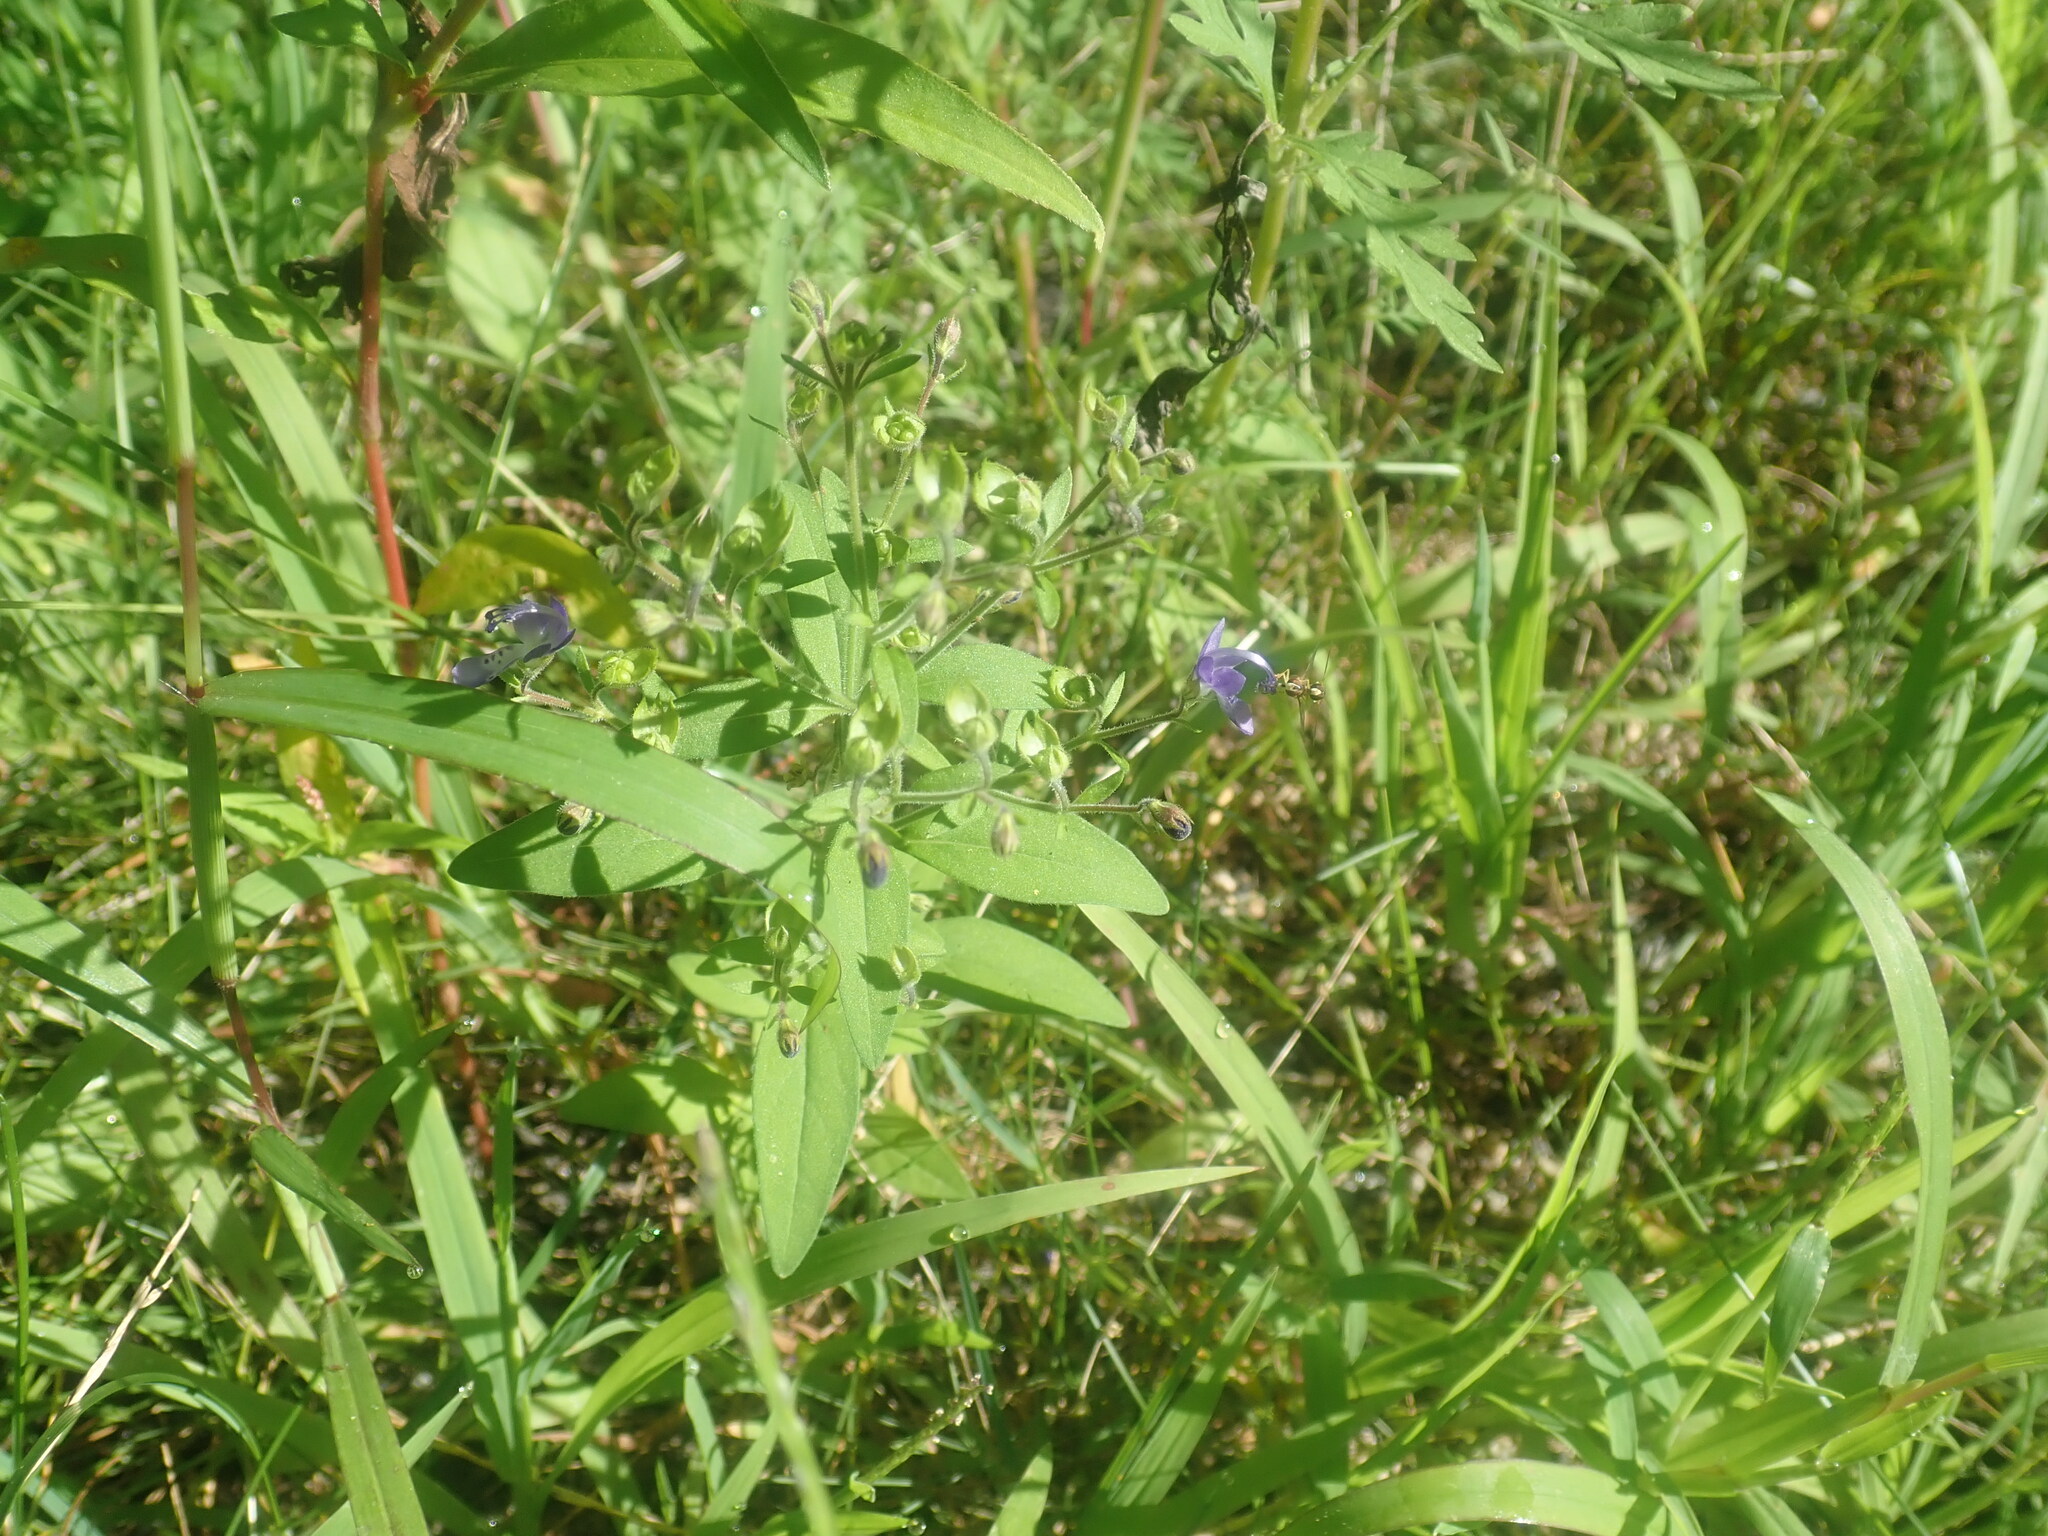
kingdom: Plantae
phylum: Tracheophyta
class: Magnoliopsida
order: Lamiales
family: Lamiaceae
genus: Trichostema
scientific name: Trichostema dichotomum
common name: Bastard pennyroyal
